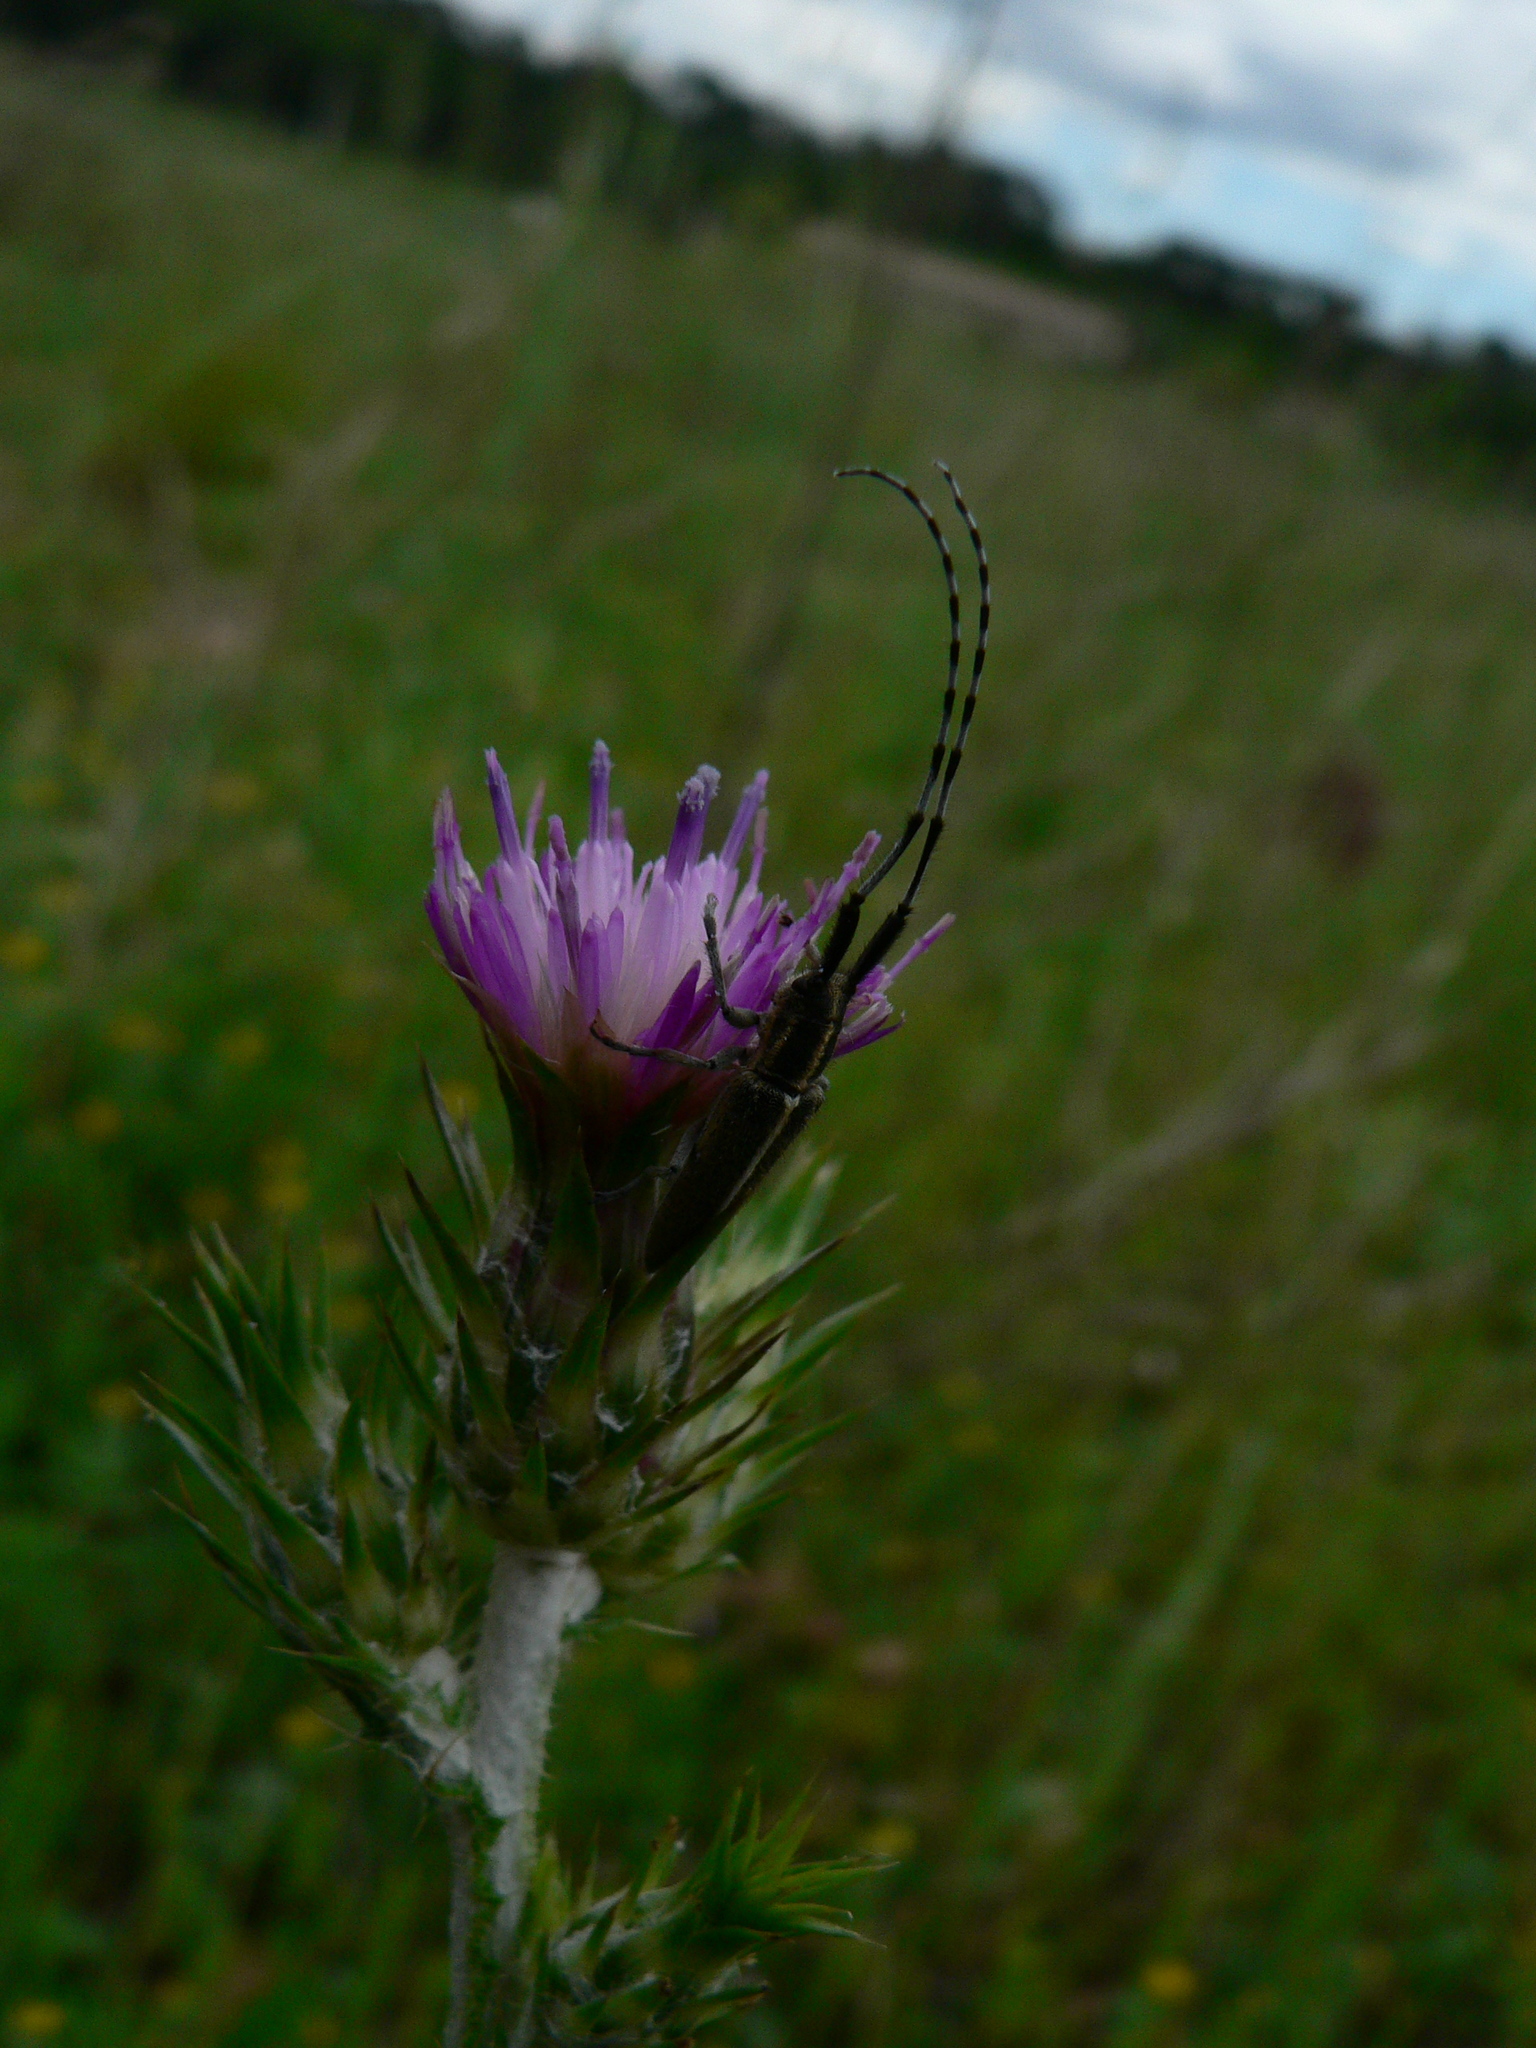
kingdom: Animalia
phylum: Arthropoda
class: Insecta
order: Coleoptera
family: Cerambycidae
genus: Agapanthia
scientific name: Agapanthia cardui
